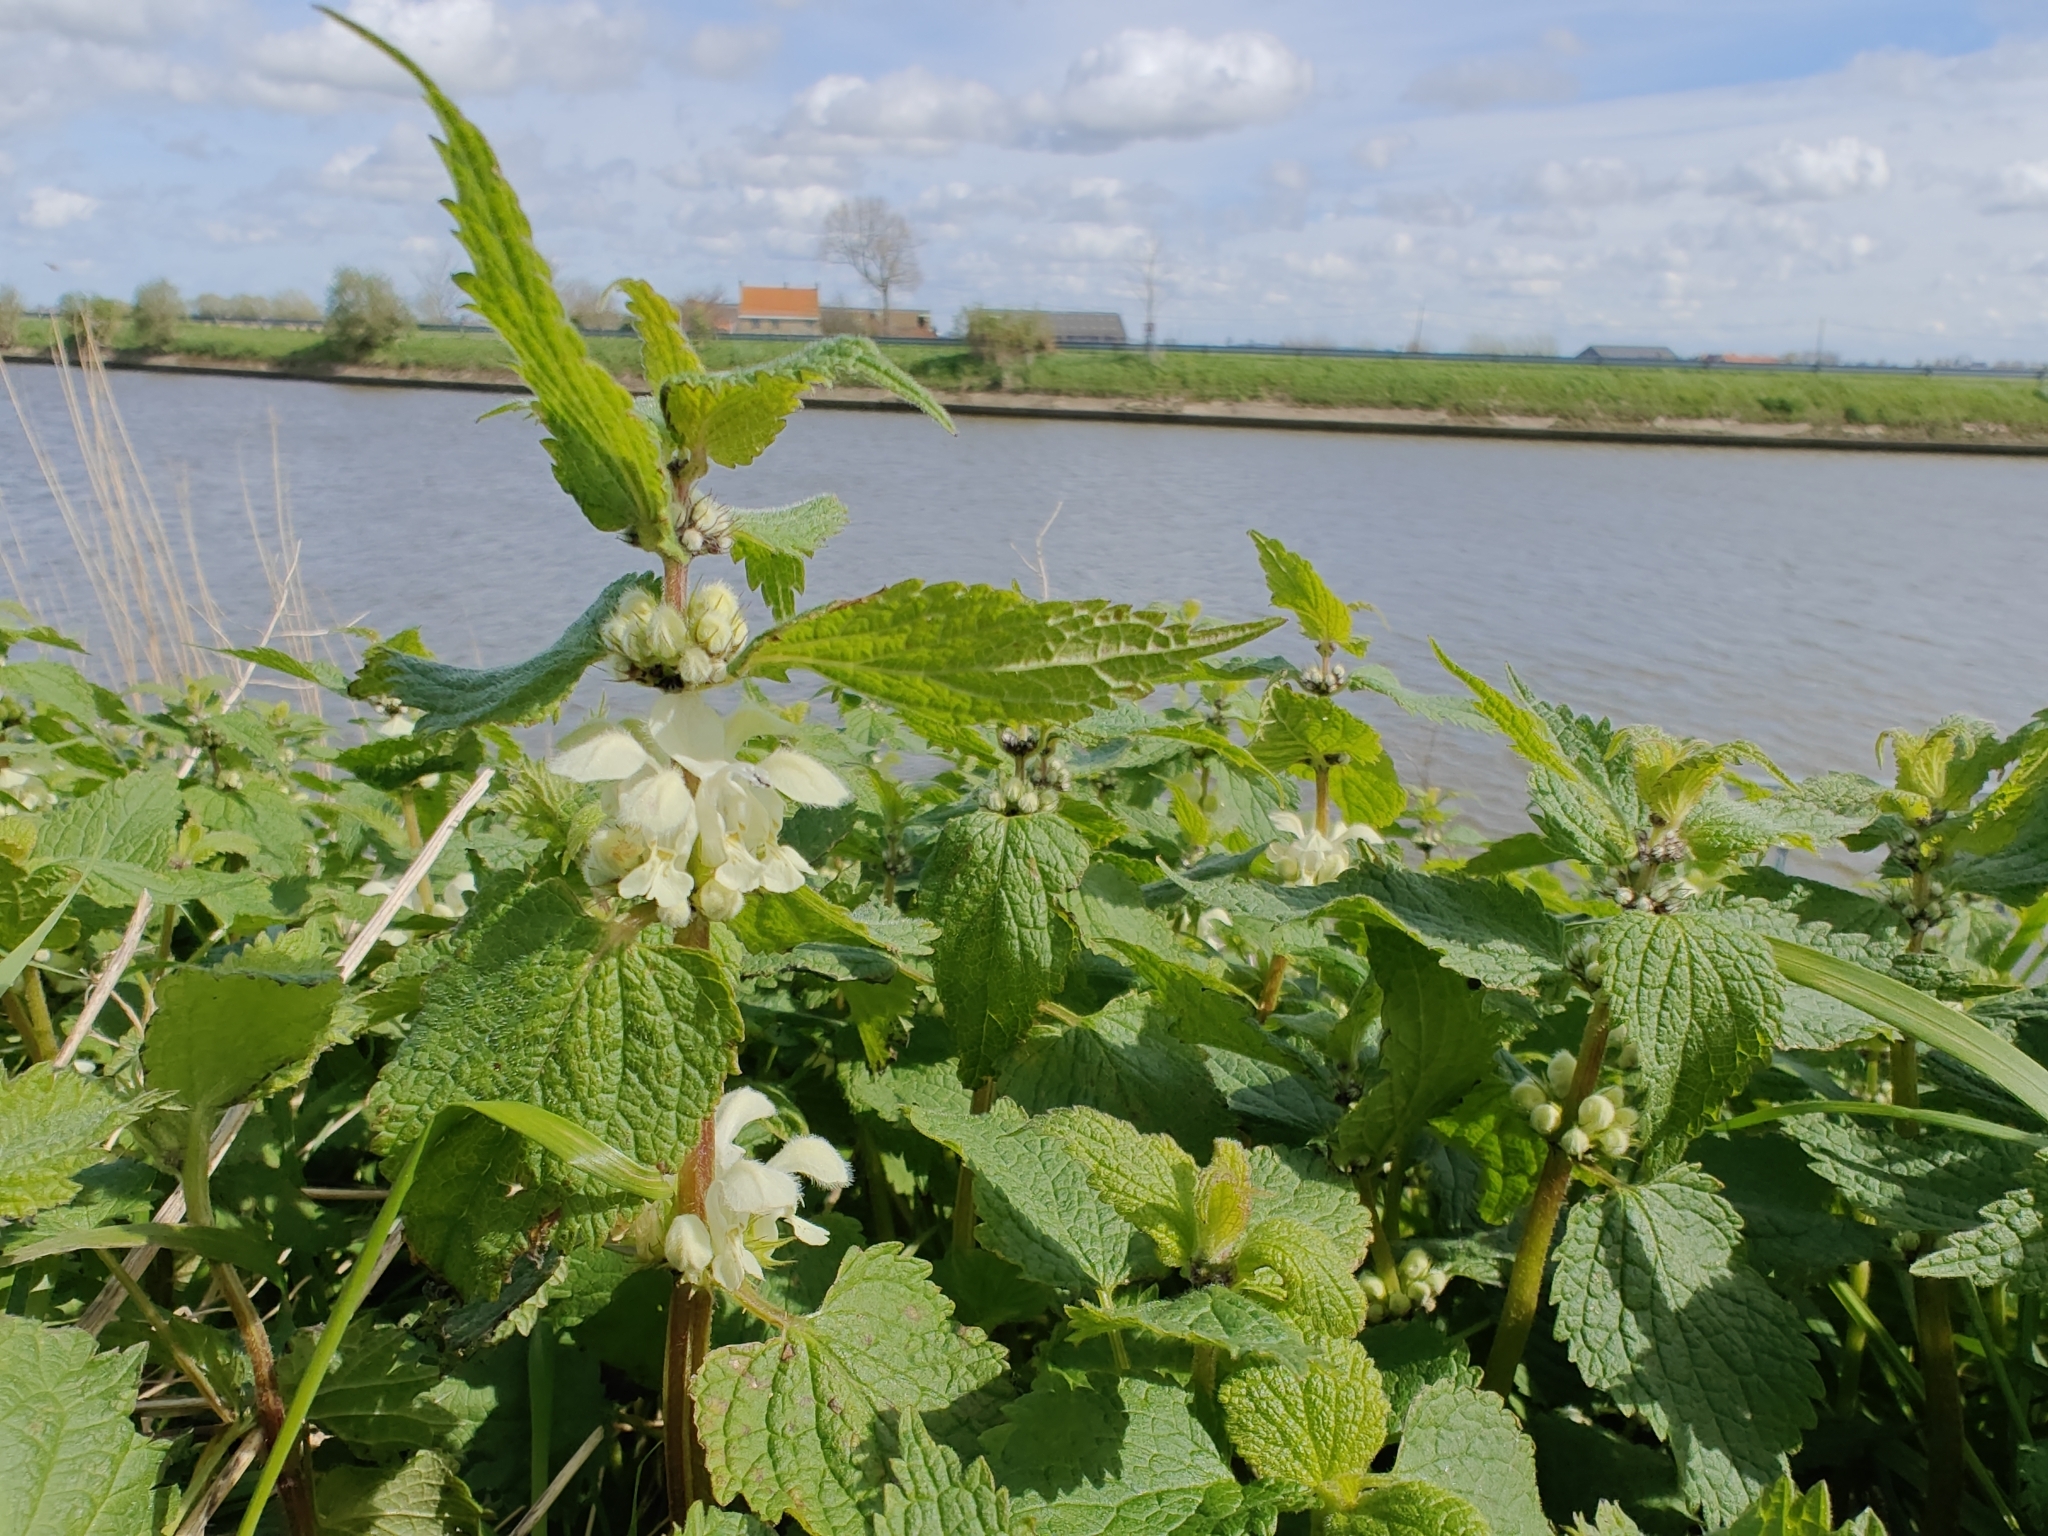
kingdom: Plantae
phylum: Tracheophyta
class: Magnoliopsida
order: Lamiales
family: Lamiaceae
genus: Lamium
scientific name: Lamium album
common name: White dead-nettle
